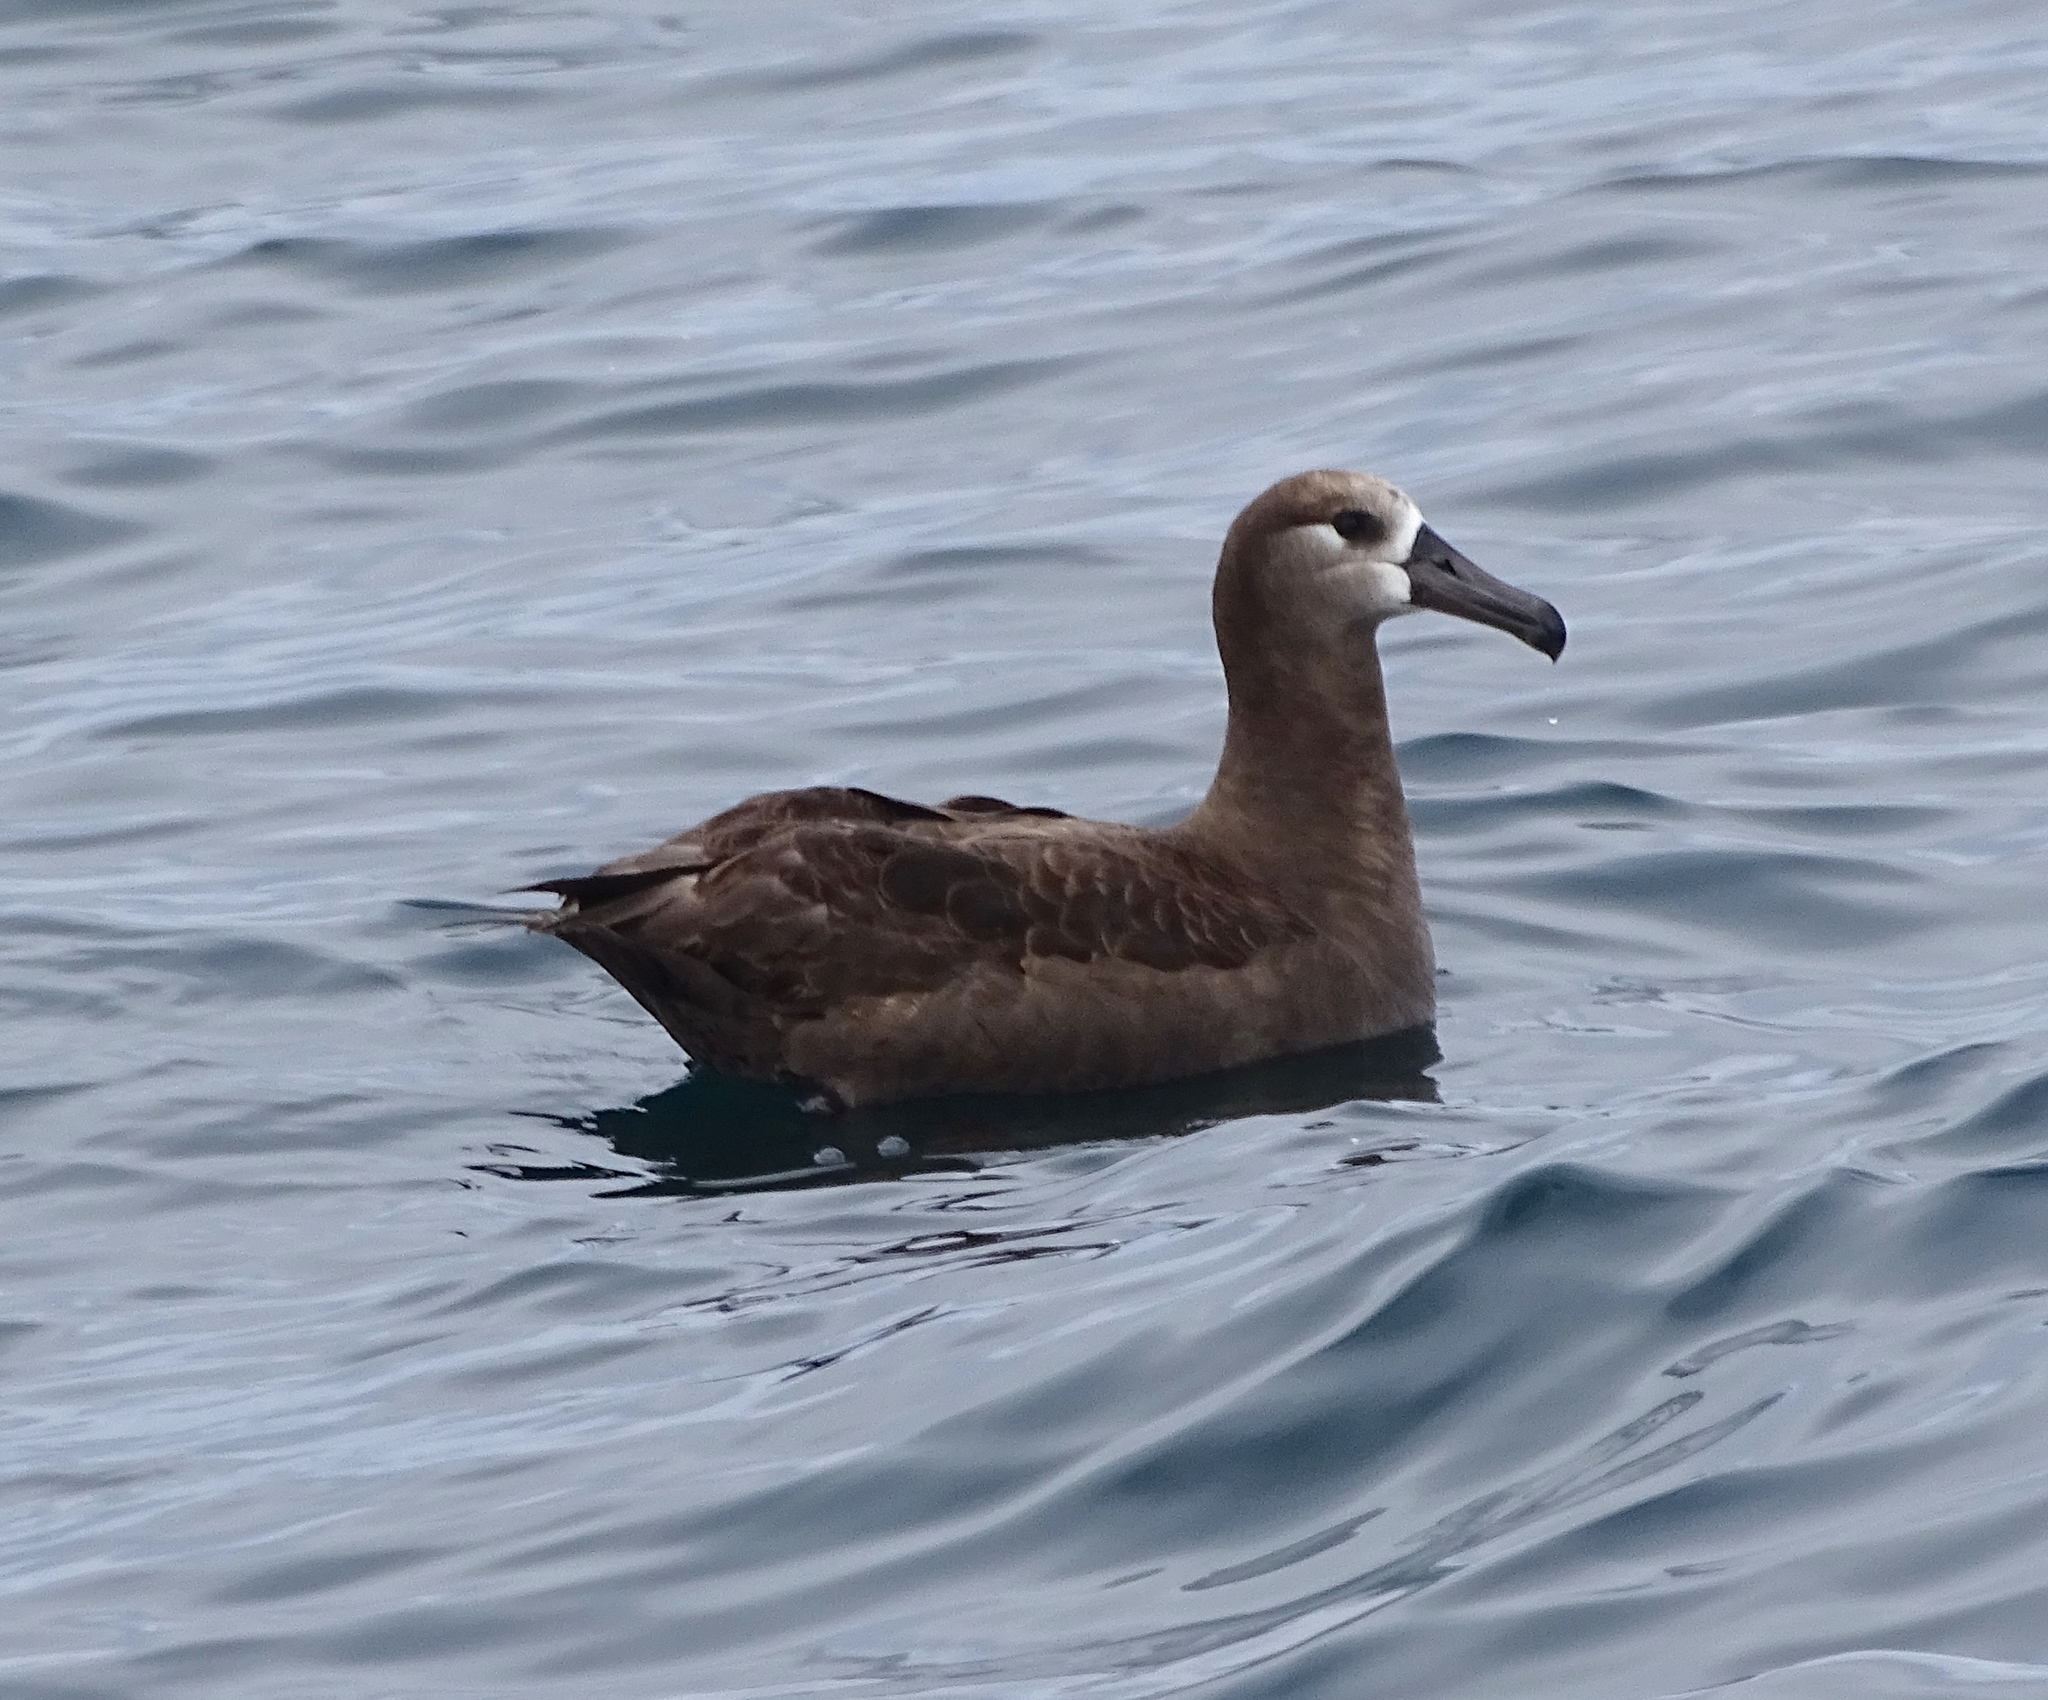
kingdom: Animalia
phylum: Chordata
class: Aves
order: Procellariiformes
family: Diomedeidae
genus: Phoebastria
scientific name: Phoebastria nigripes
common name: Black-footed albatross
